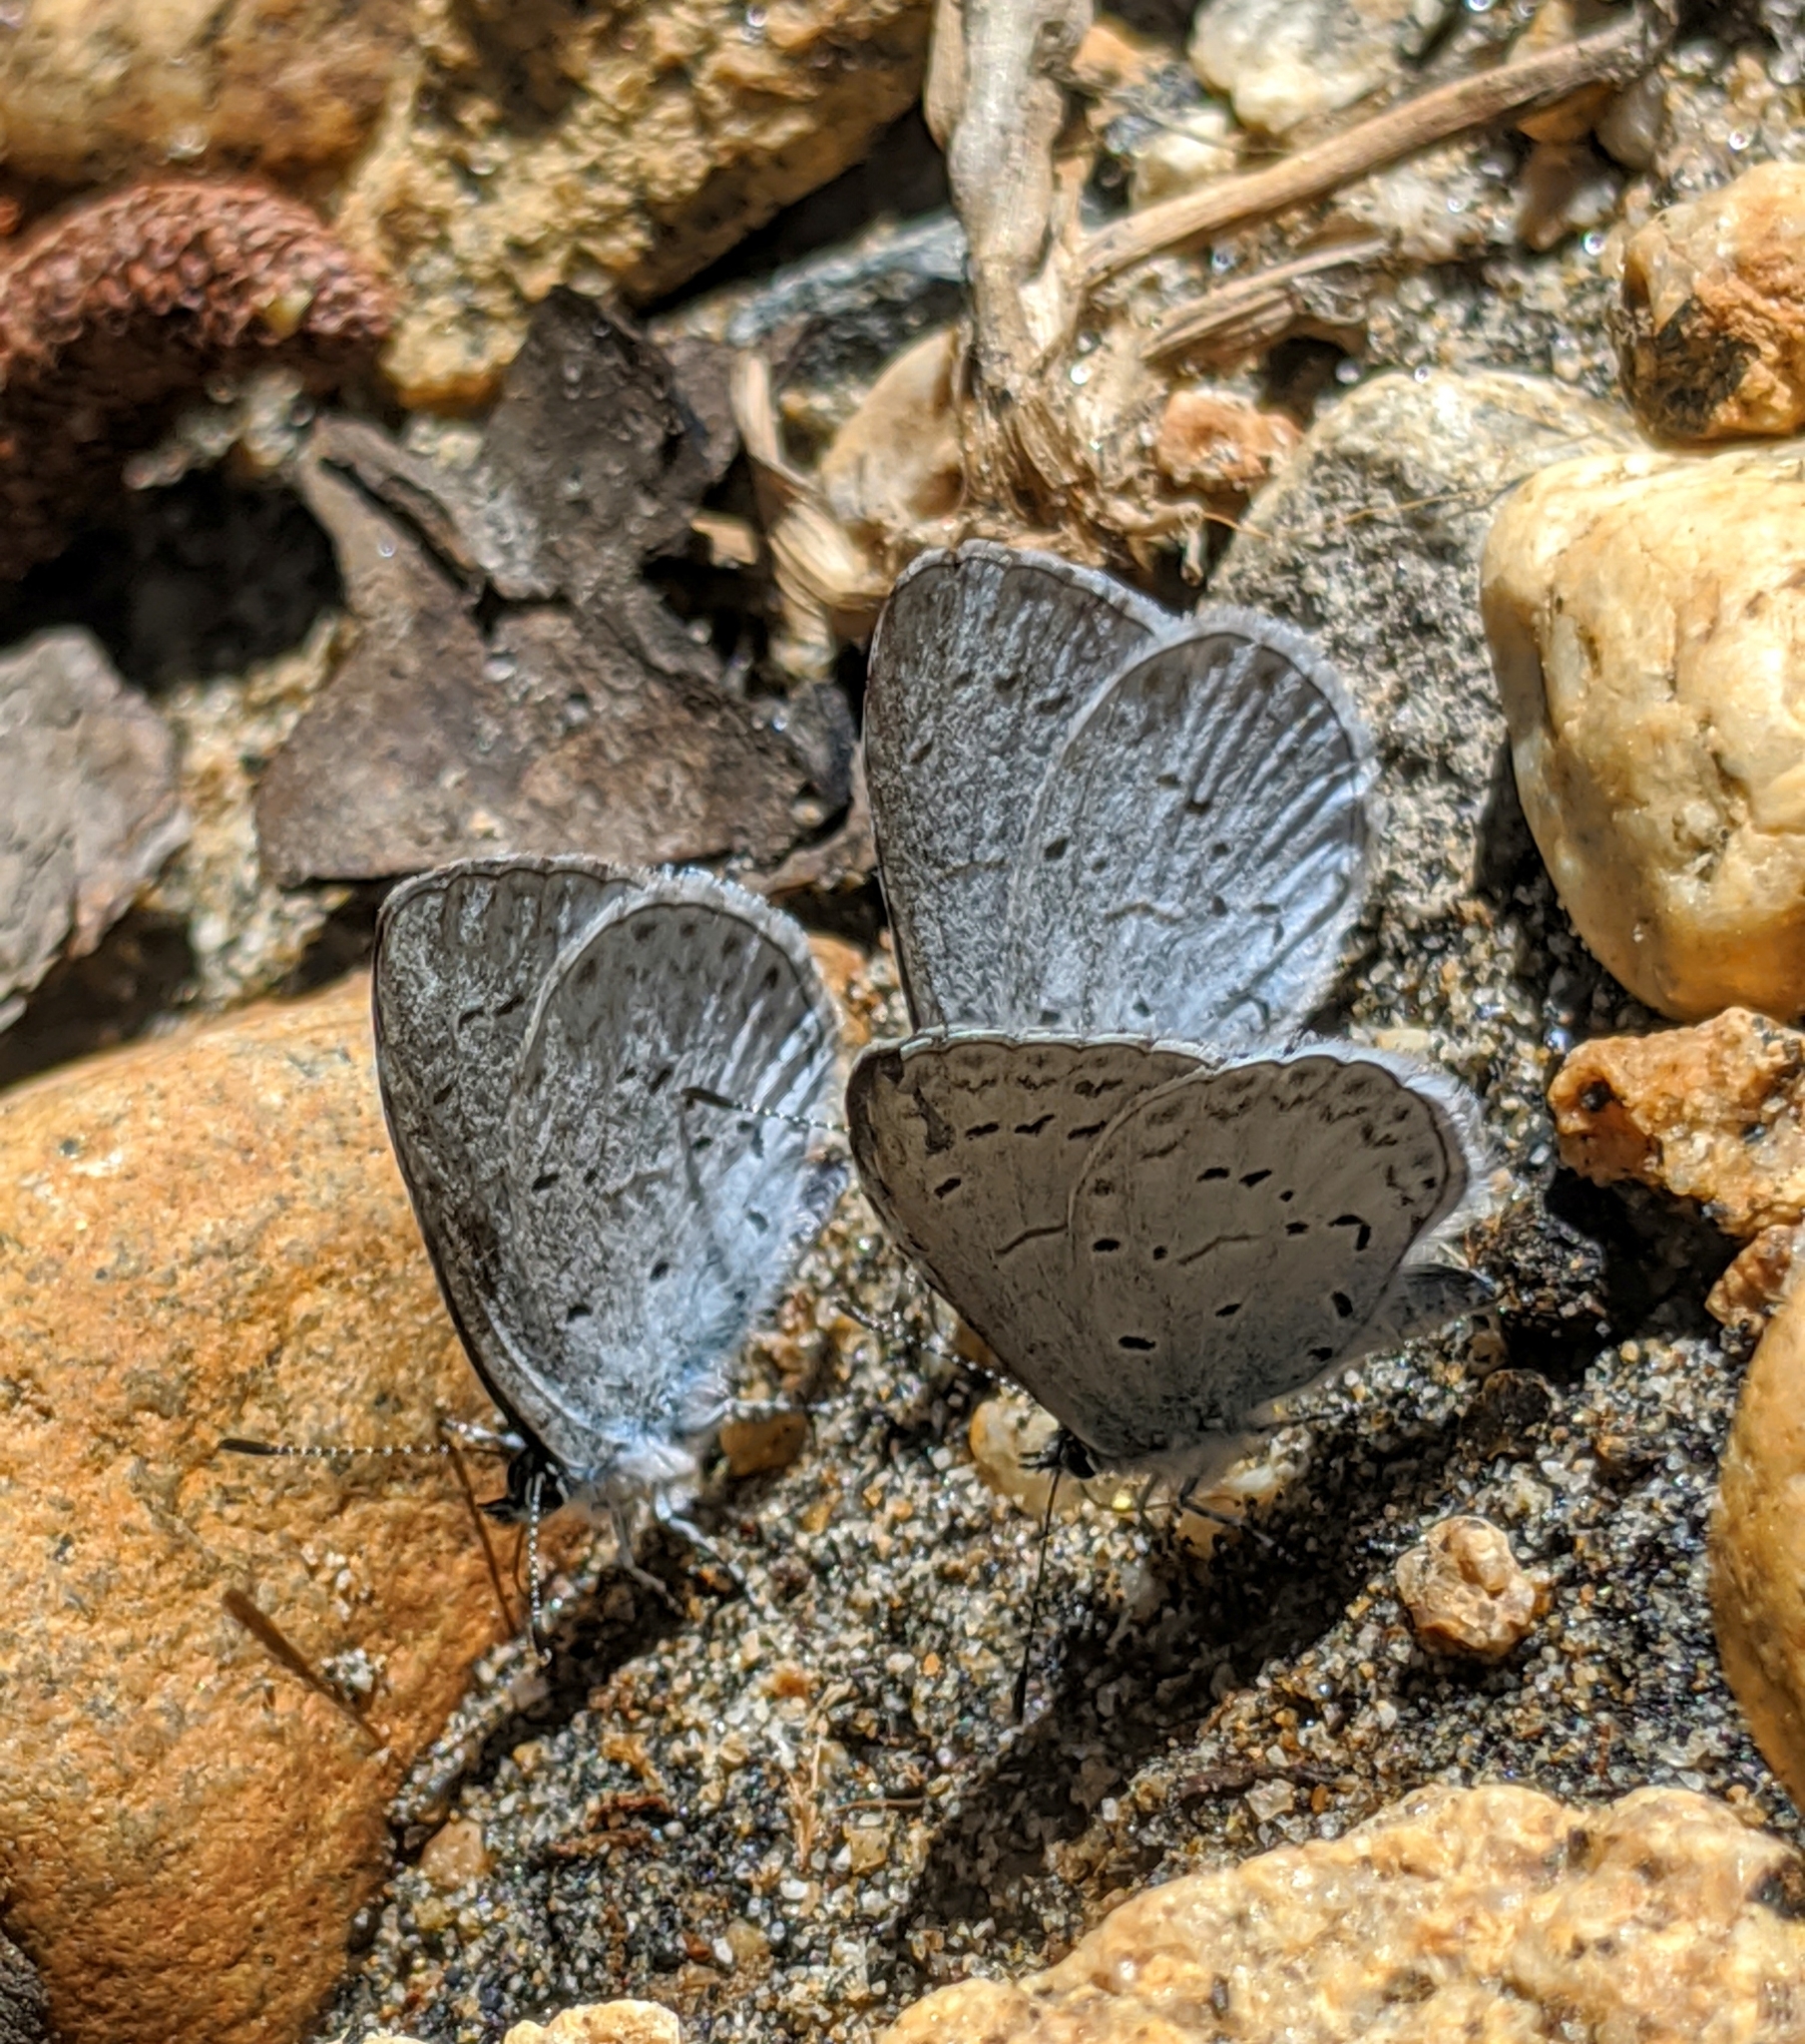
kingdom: Animalia
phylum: Arthropoda
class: Insecta
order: Lepidoptera
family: Lycaenidae
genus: Celastrina
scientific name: Celastrina ladon
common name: Spring azure
